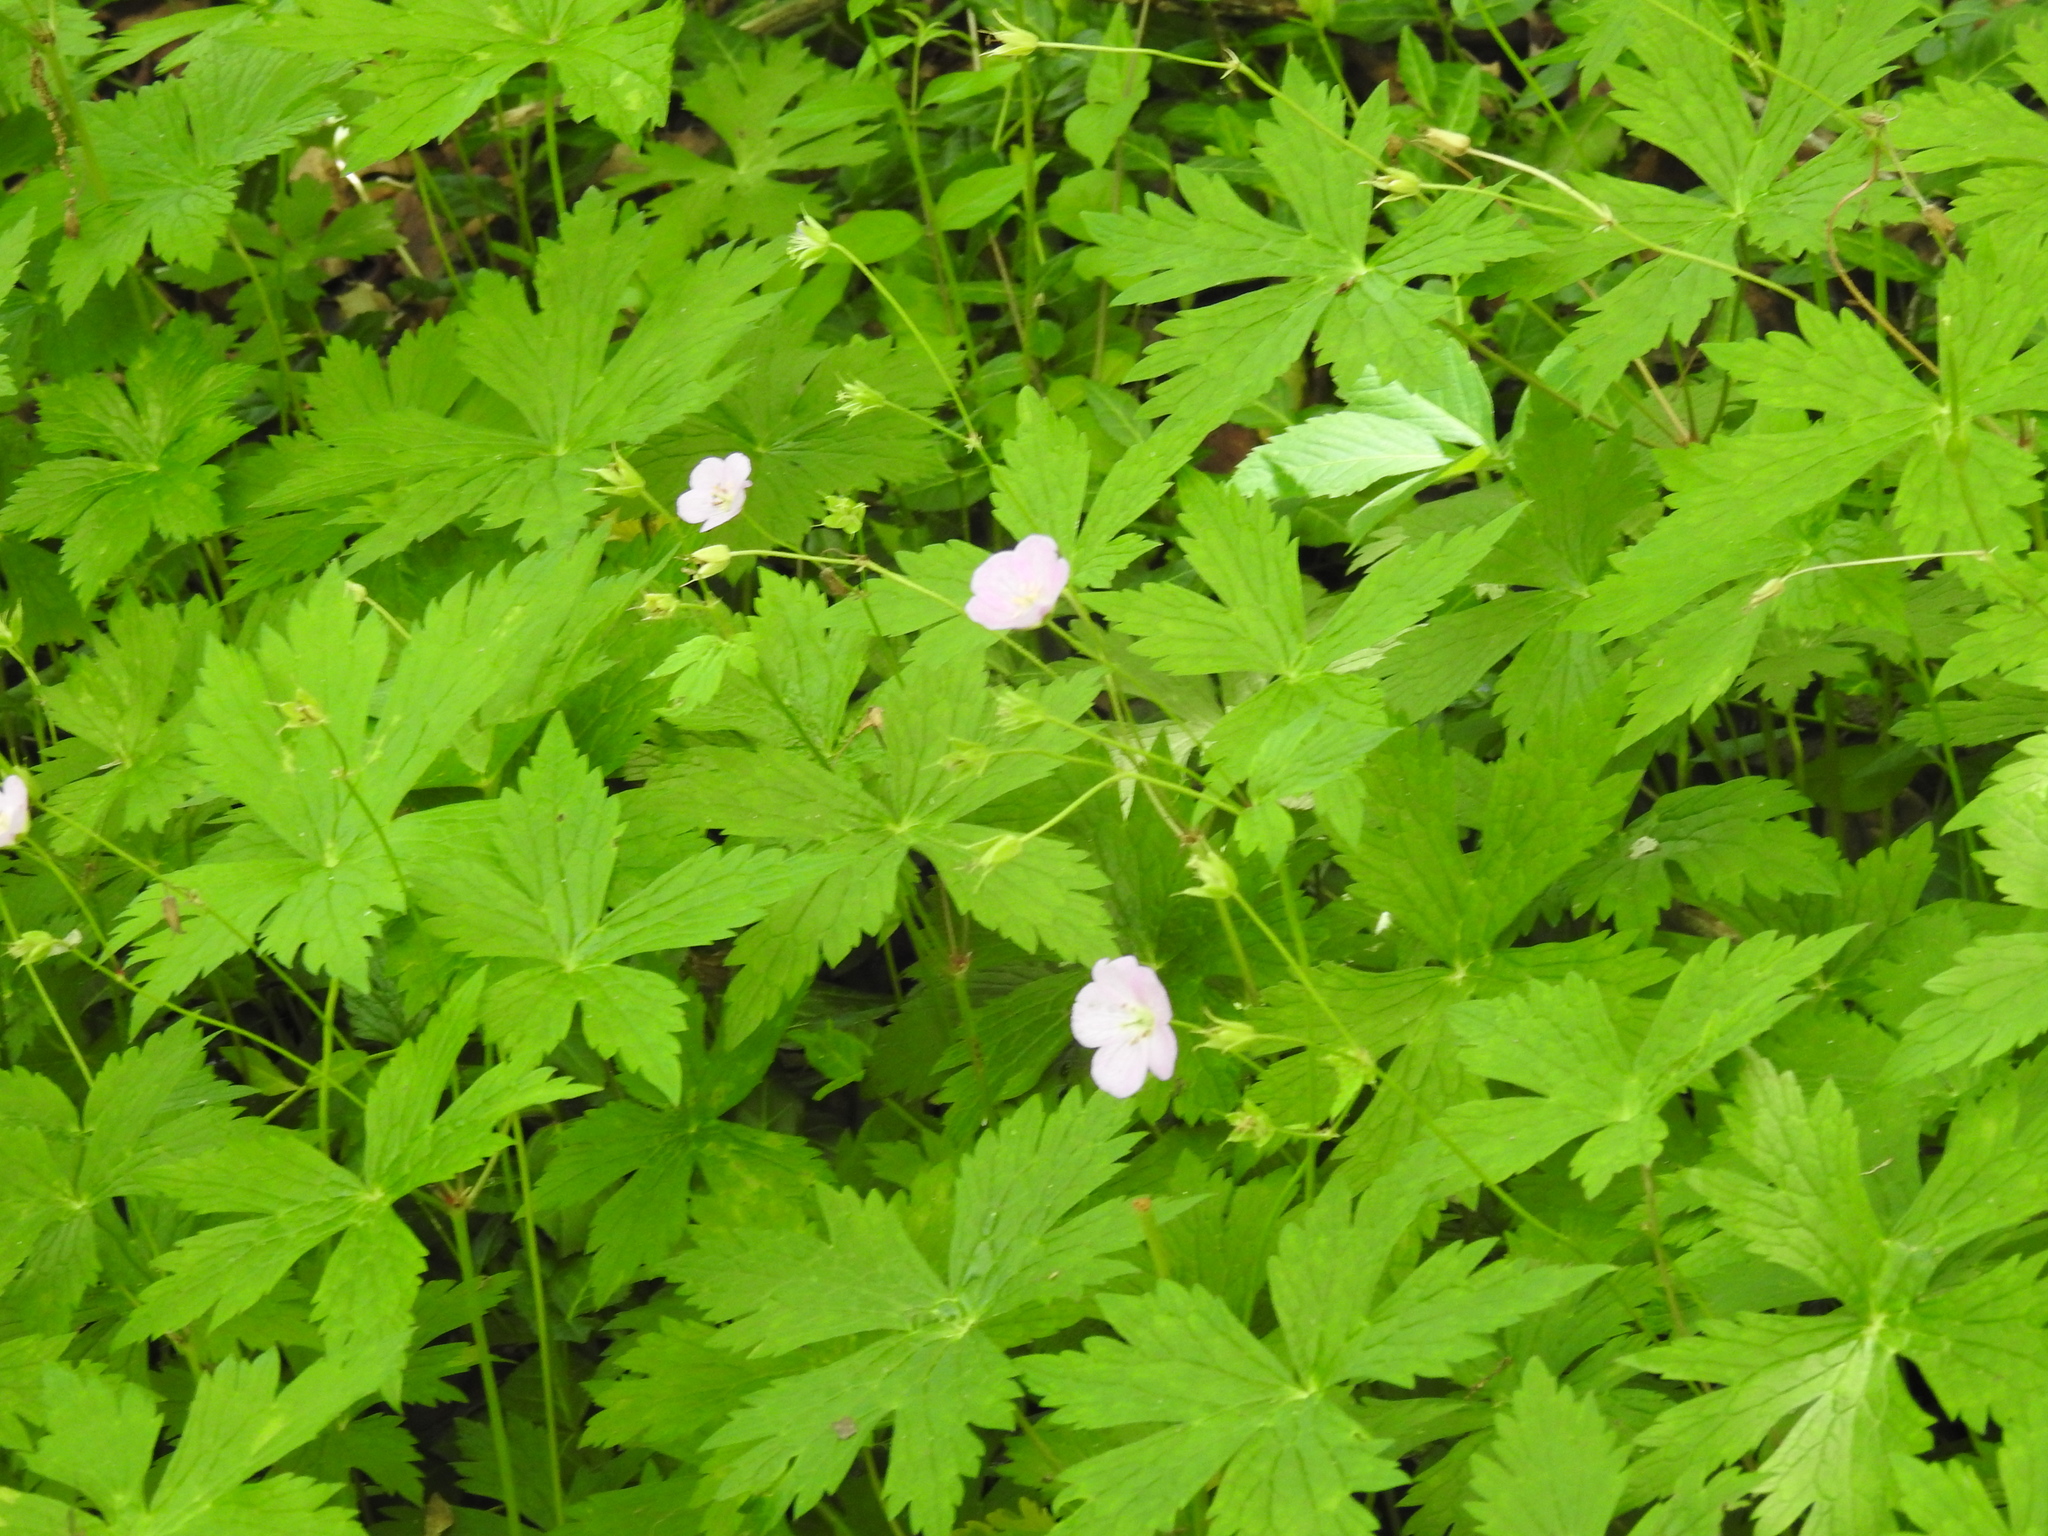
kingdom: Plantae
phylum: Tracheophyta
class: Magnoliopsida
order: Geraniales
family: Geraniaceae
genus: Geranium
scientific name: Geranium maculatum
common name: Spotted geranium
